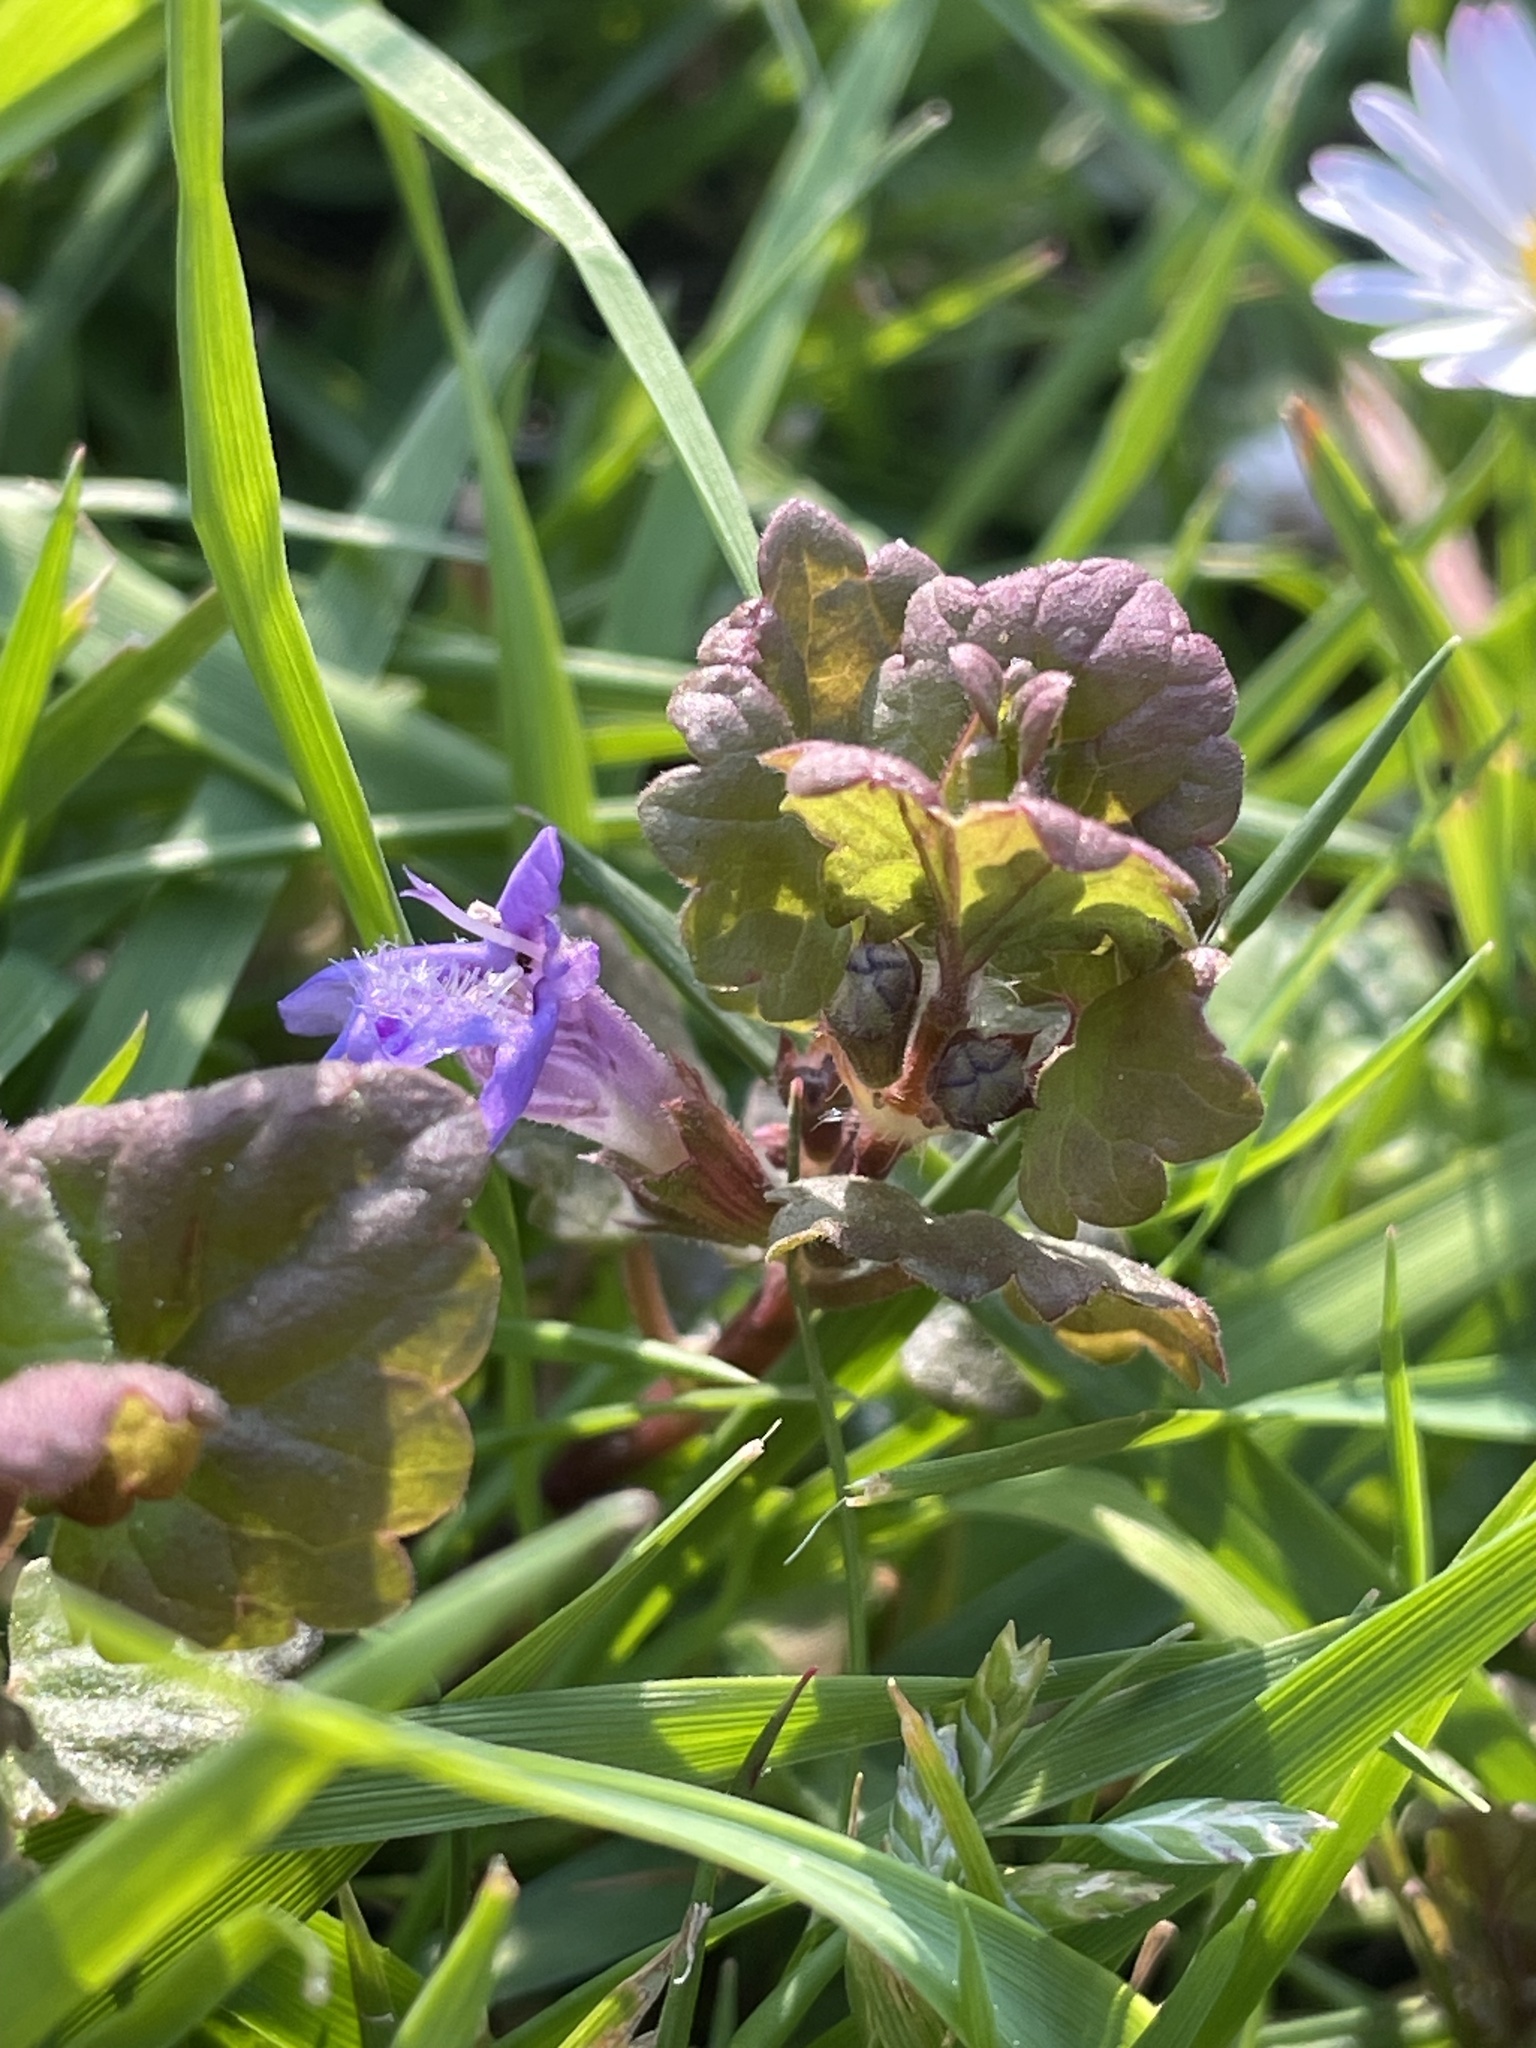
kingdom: Plantae
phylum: Tracheophyta
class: Magnoliopsida
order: Lamiales
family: Lamiaceae
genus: Glechoma
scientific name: Glechoma hederacea
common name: Ground ivy
